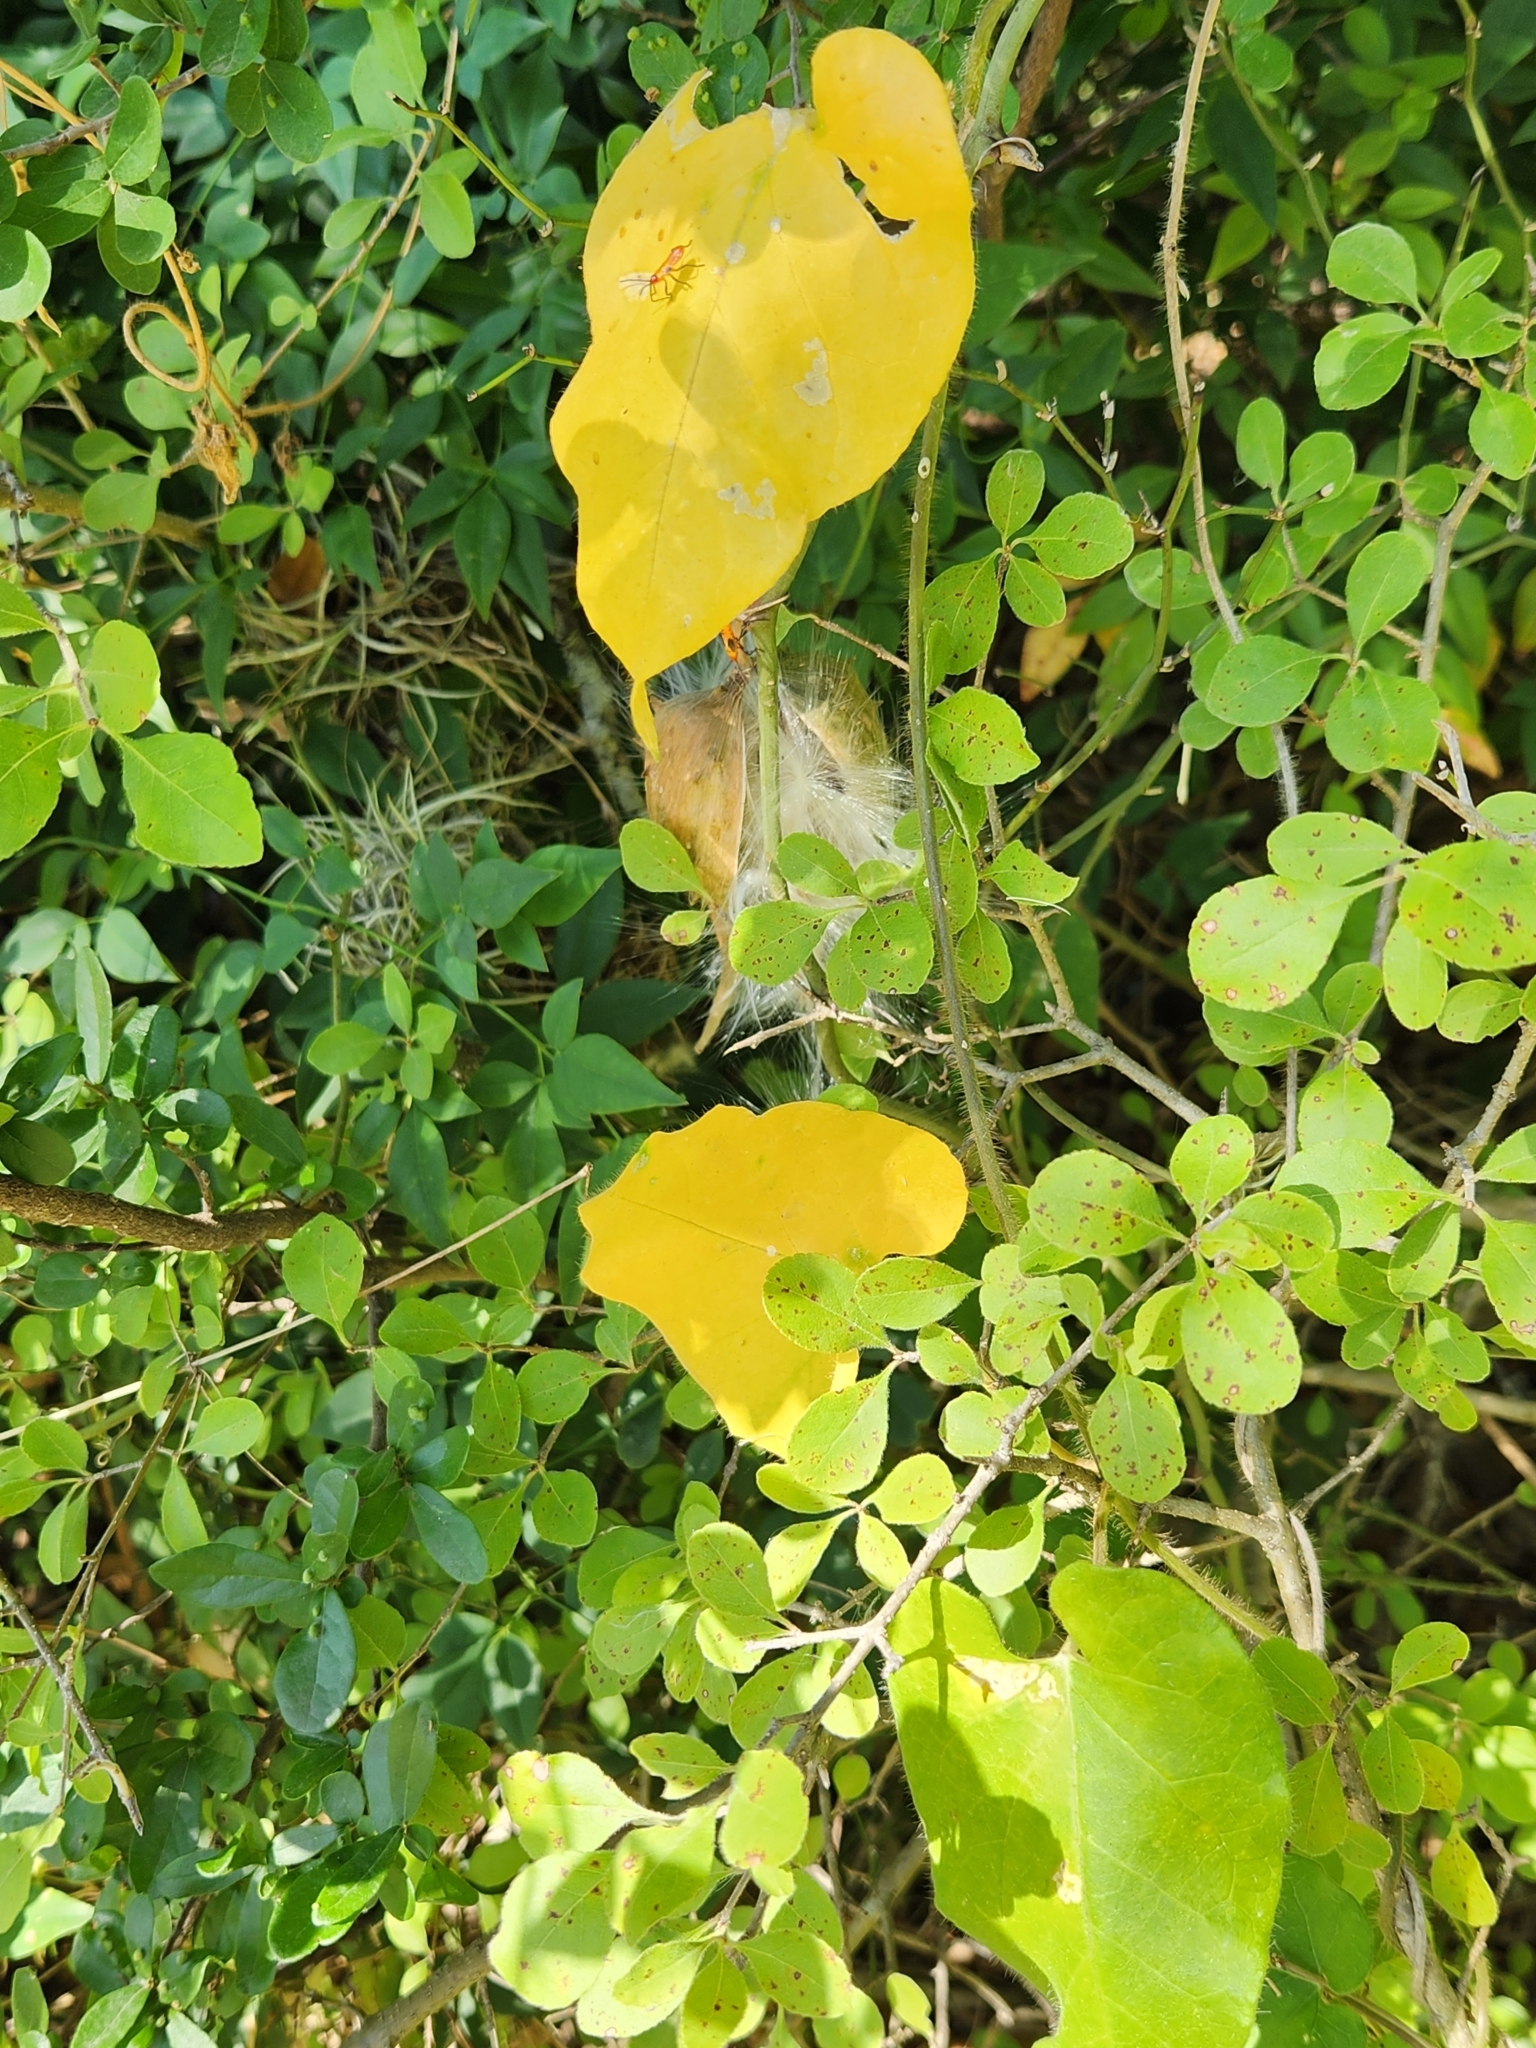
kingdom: Plantae
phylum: Tracheophyta
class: Magnoliopsida
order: Gentianales
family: Apocynaceae
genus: Dictyanthus
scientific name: Dictyanthus reticulatus
